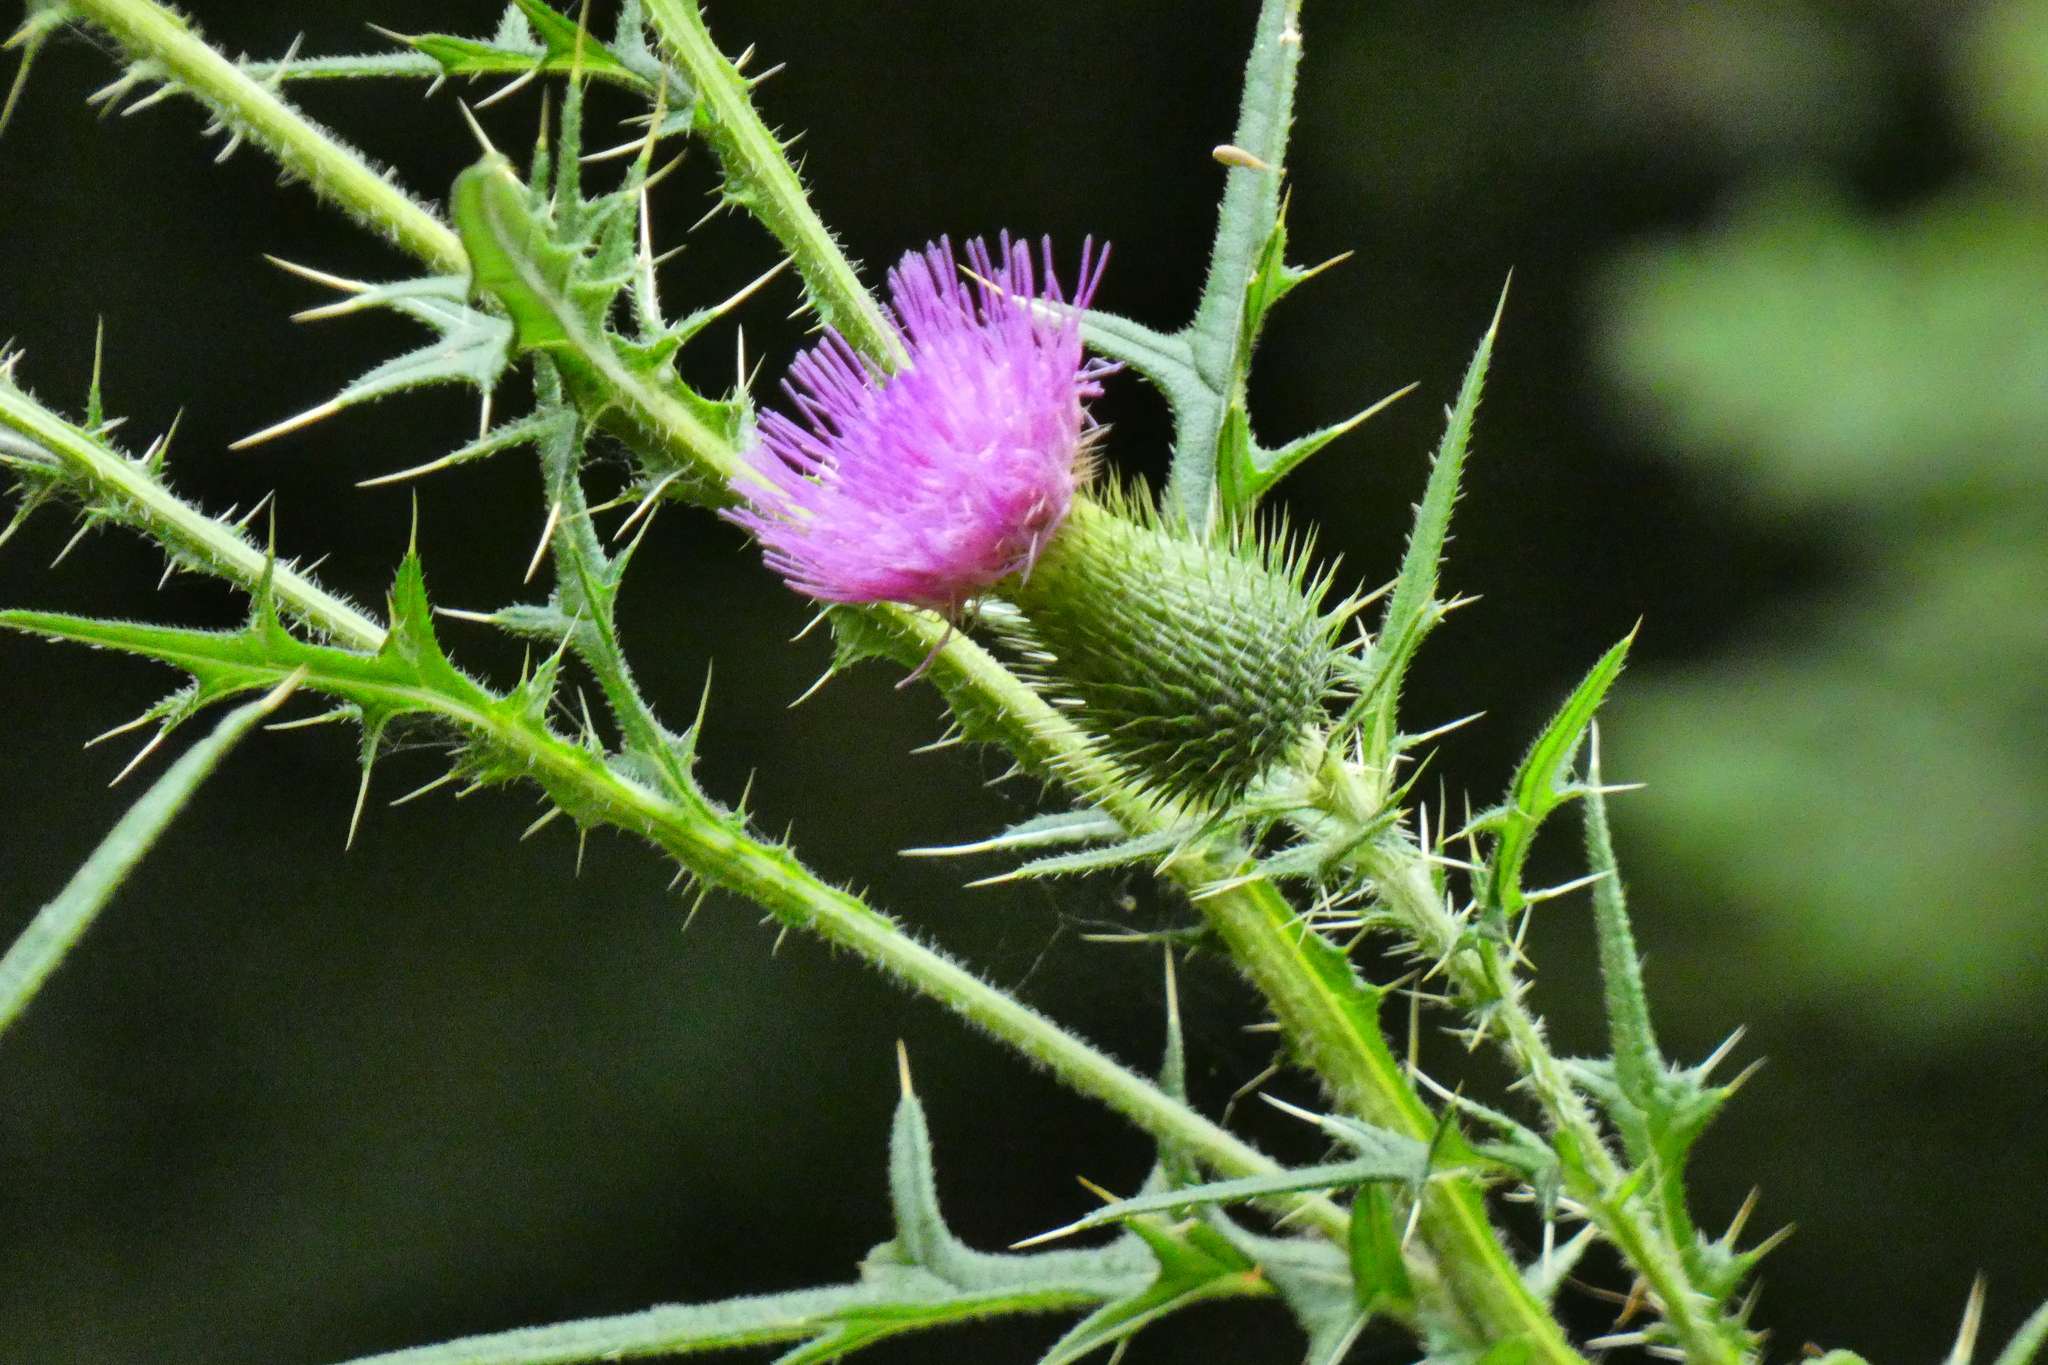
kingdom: Plantae
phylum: Tracheophyta
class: Magnoliopsida
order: Asterales
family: Asteraceae
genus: Cirsium
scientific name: Cirsium vulgare
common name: Bull thistle
